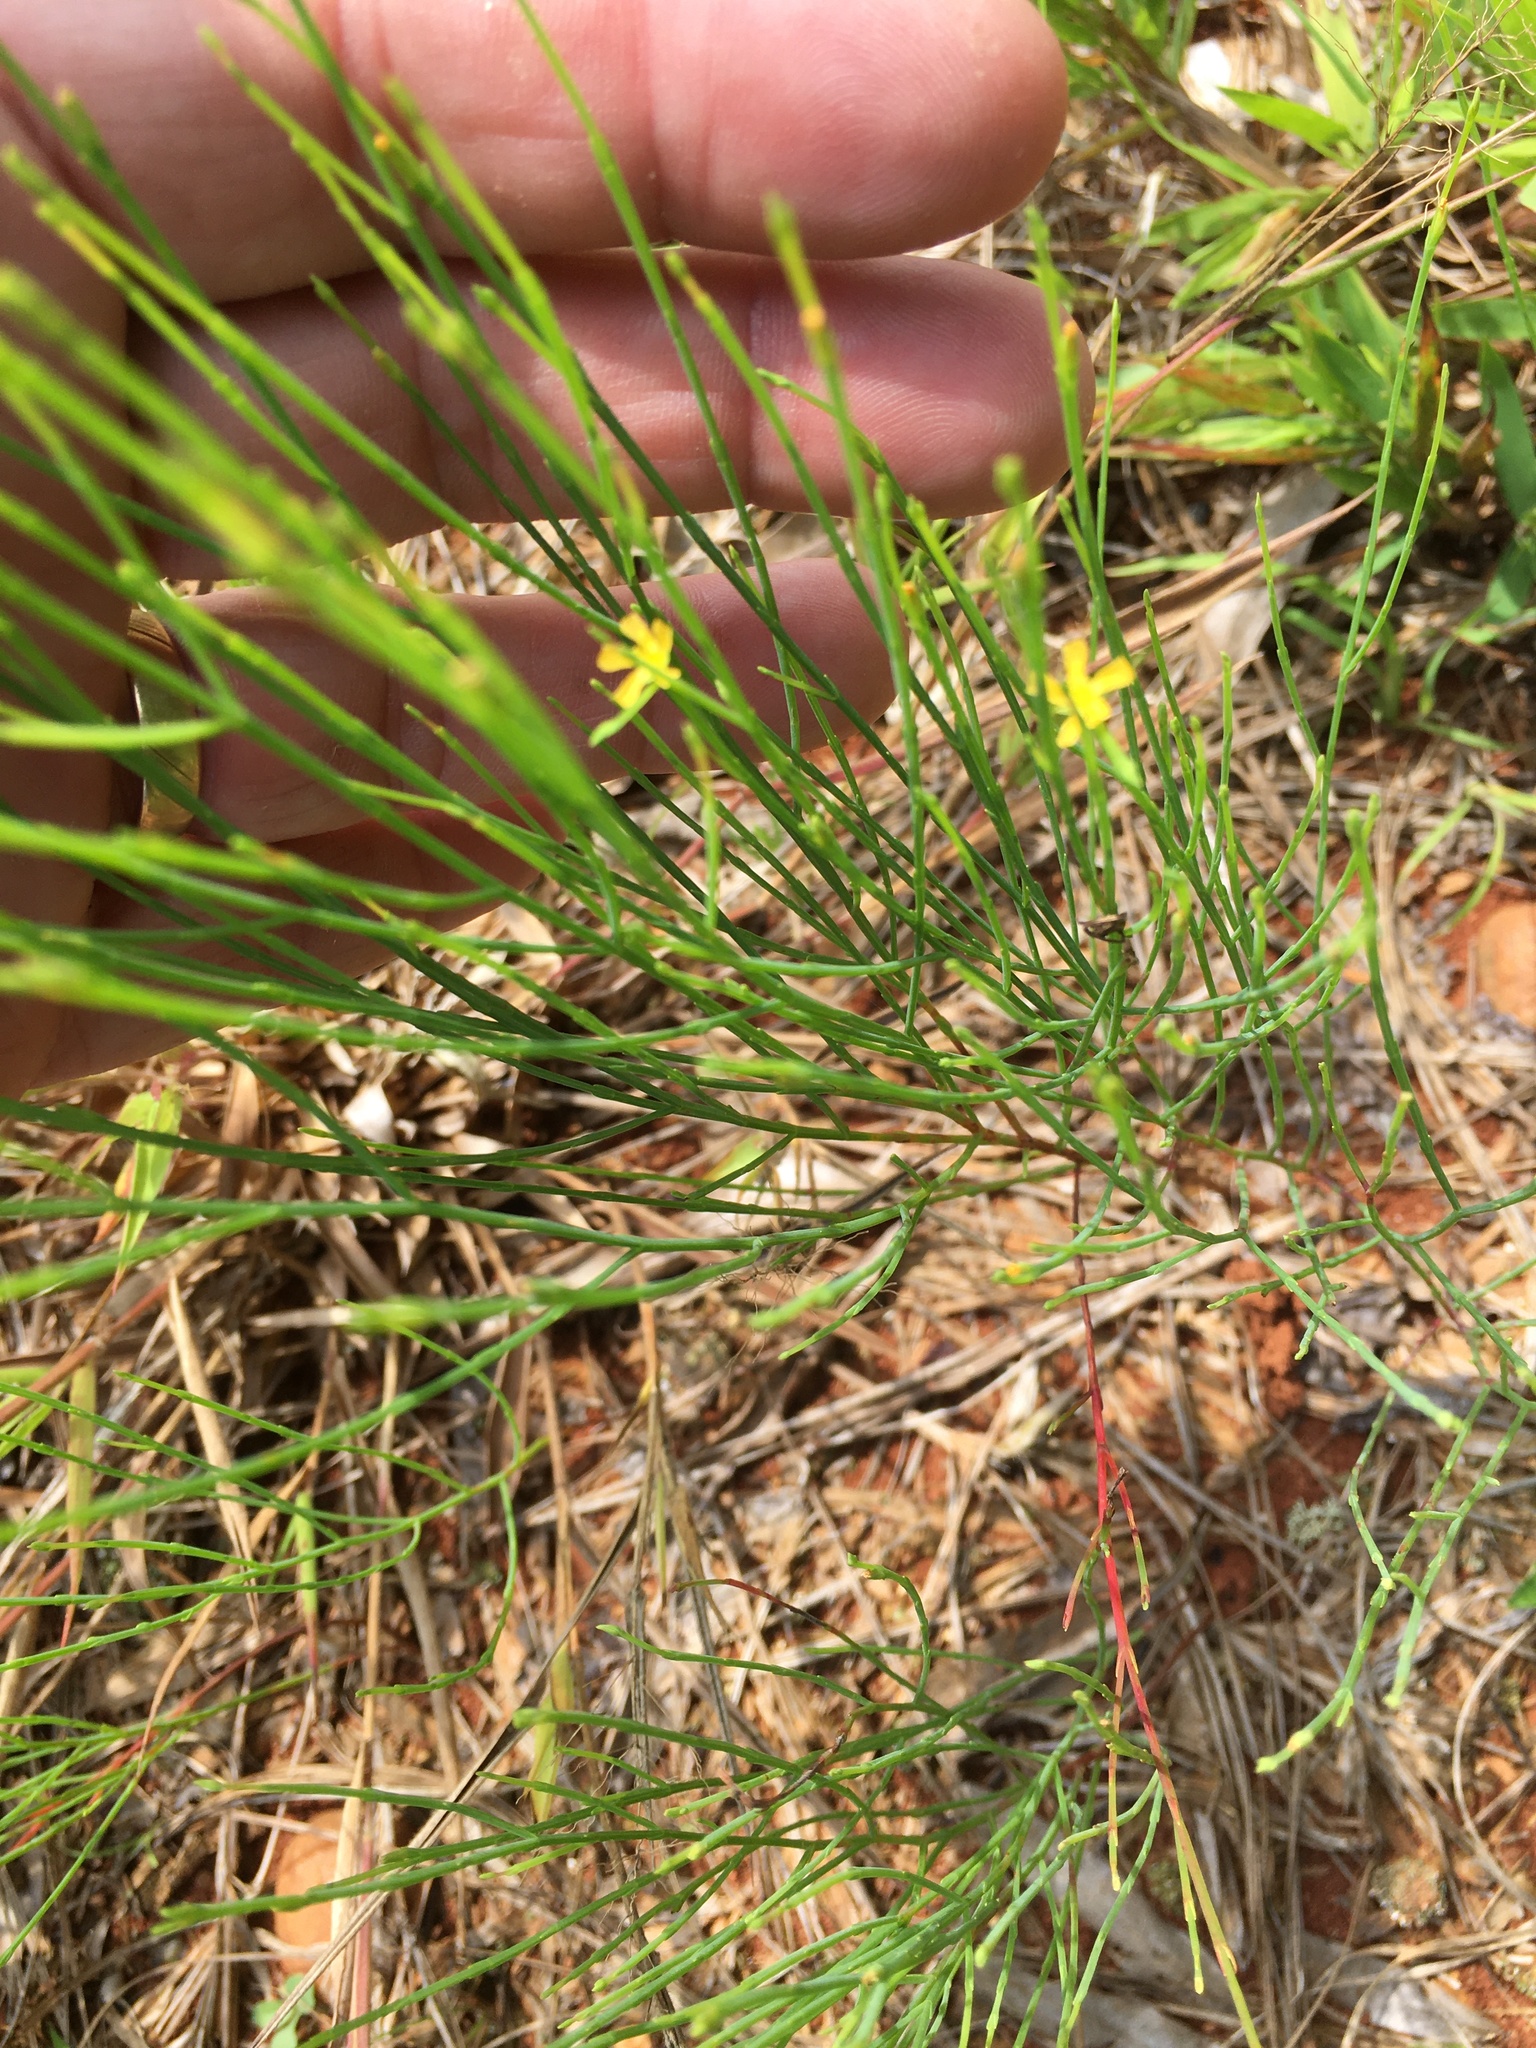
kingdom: Plantae
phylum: Tracheophyta
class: Magnoliopsida
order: Malpighiales
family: Hypericaceae
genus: Hypericum
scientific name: Hypericum gentianoides
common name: Gentian-leaved st. john's-wort
